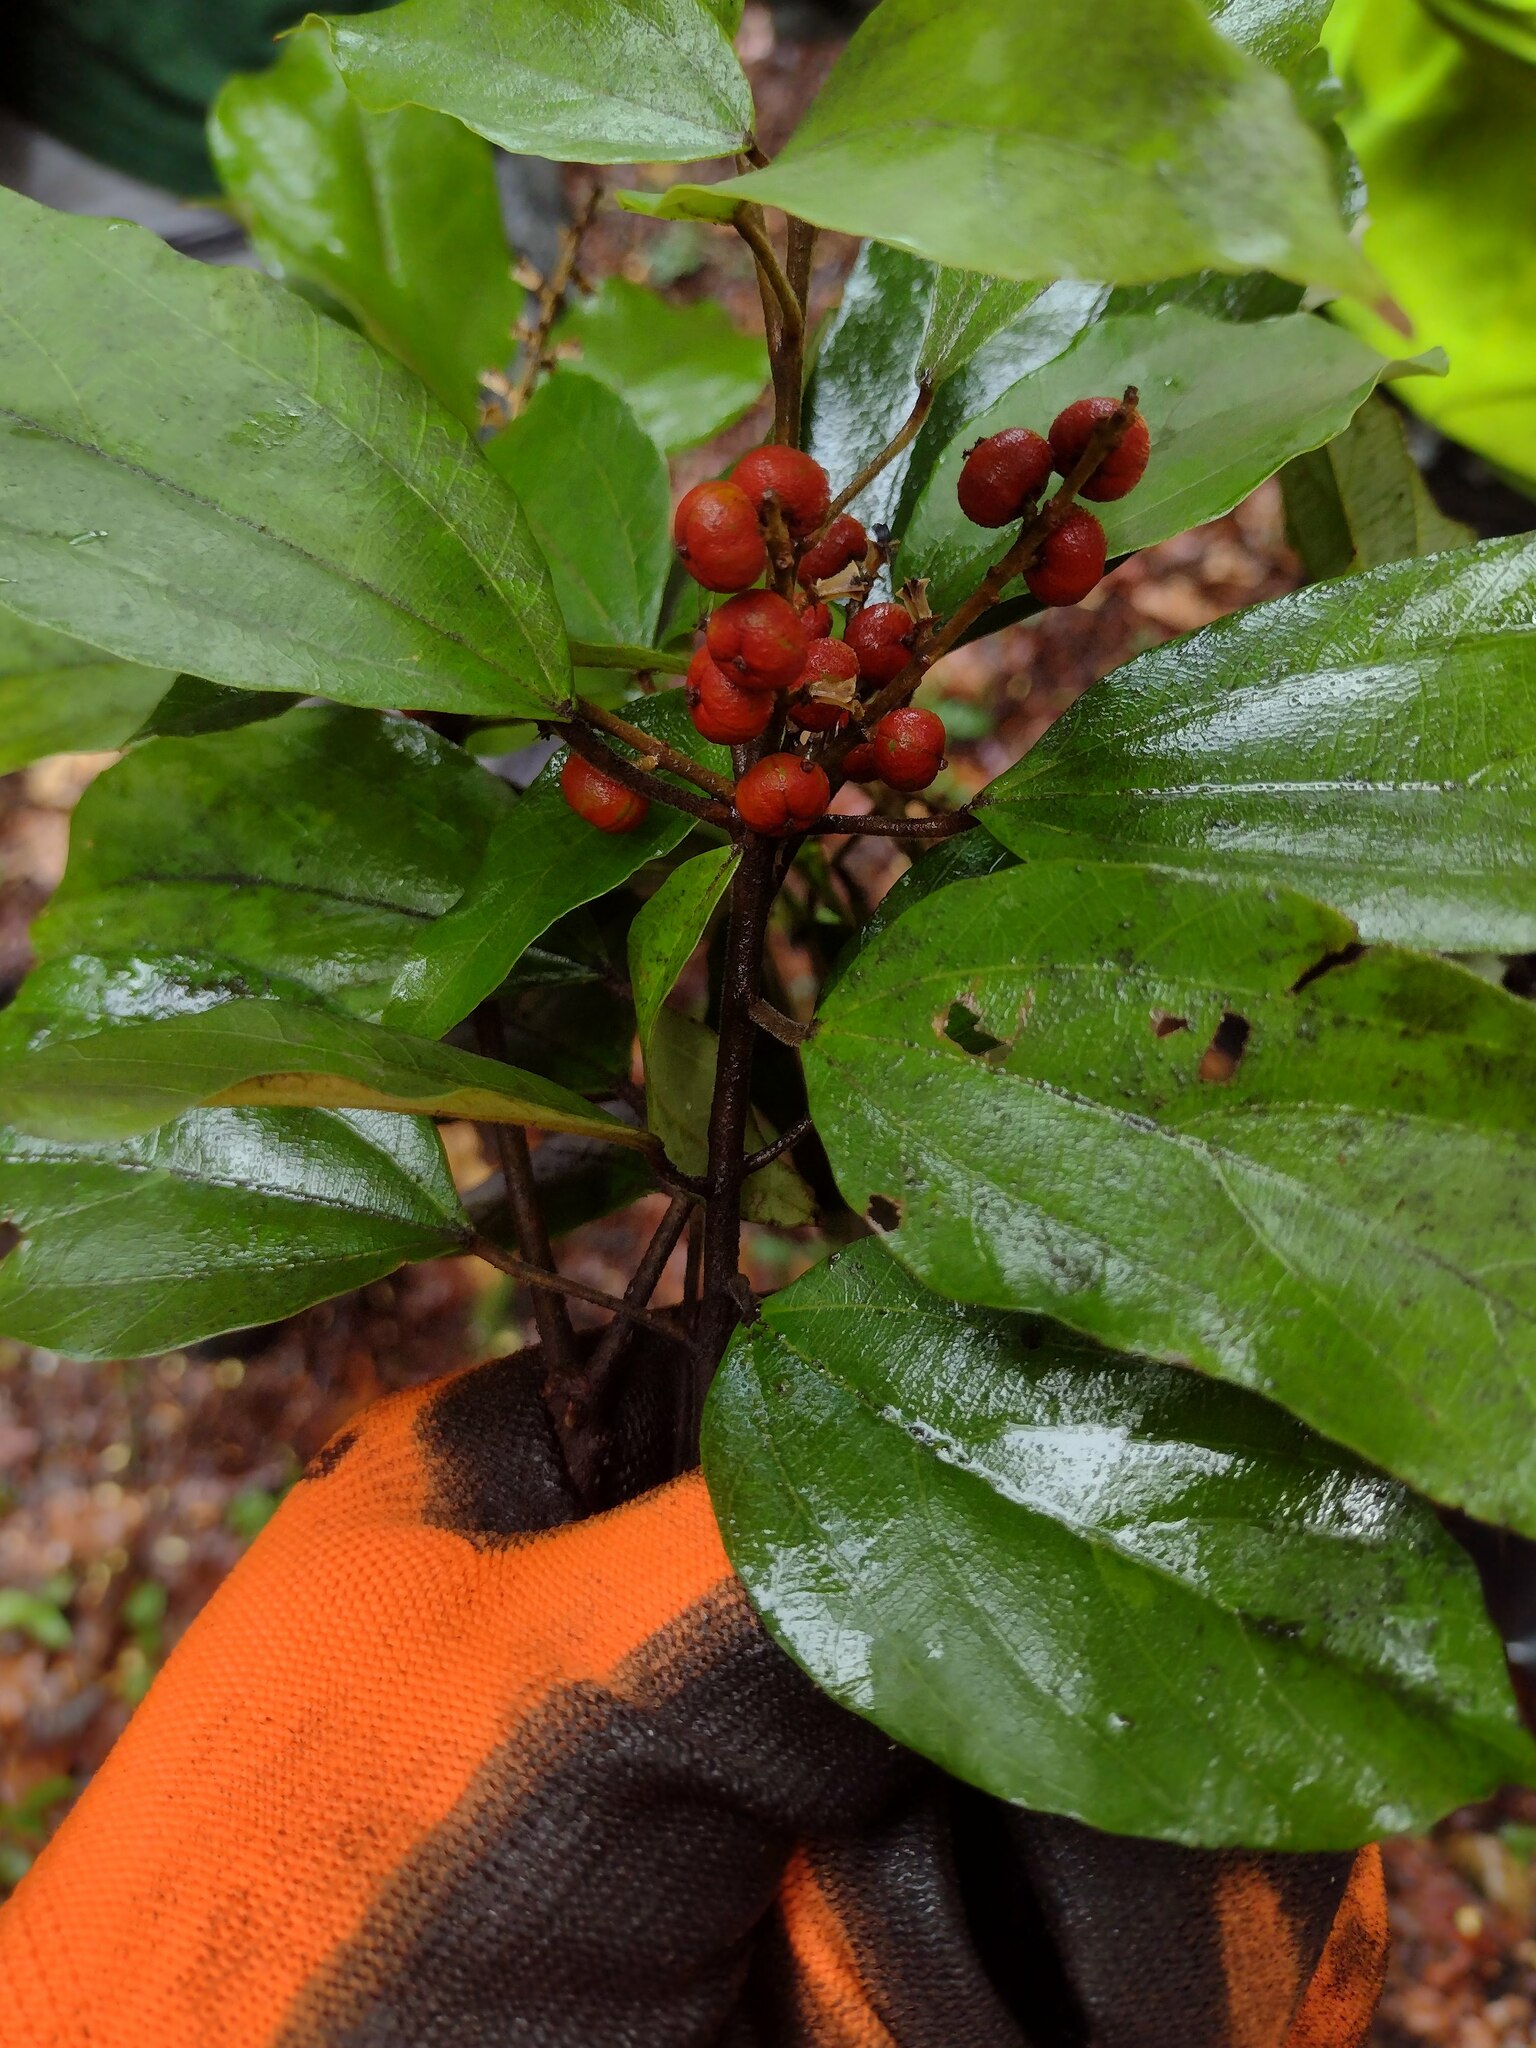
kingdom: Plantae
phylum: Tracheophyta
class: Magnoliopsida
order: Malpighiales
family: Euphorbiaceae
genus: Mallotus
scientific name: Mallotus philippensis
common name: Kamala tree
